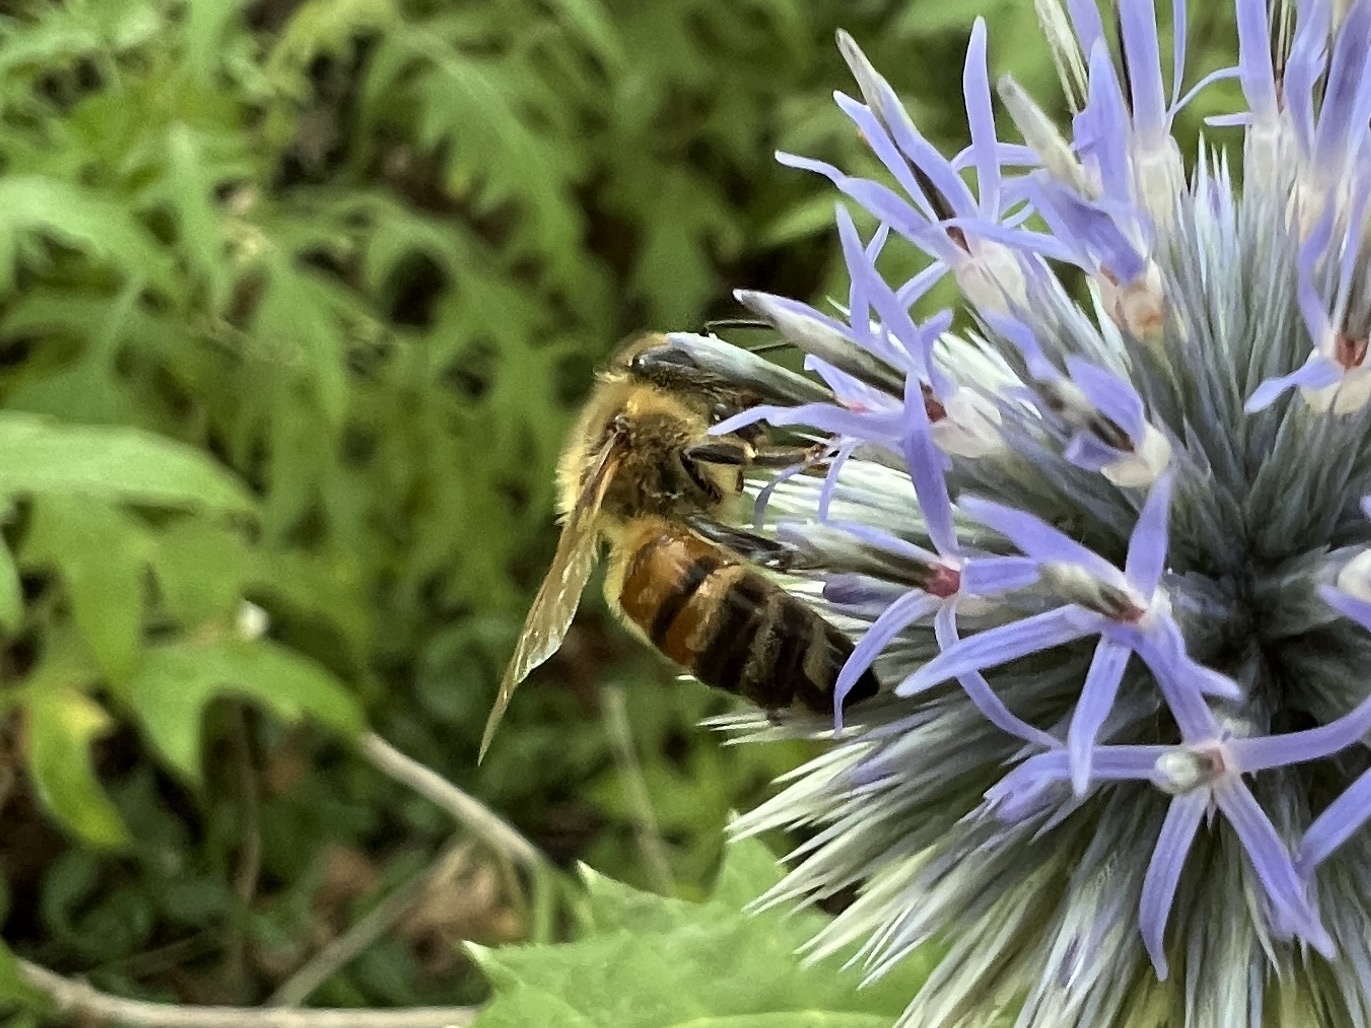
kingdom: Animalia
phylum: Arthropoda
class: Insecta
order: Hymenoptera
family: Apidae
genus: Apis
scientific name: Apis mellifera
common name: Honey bee
